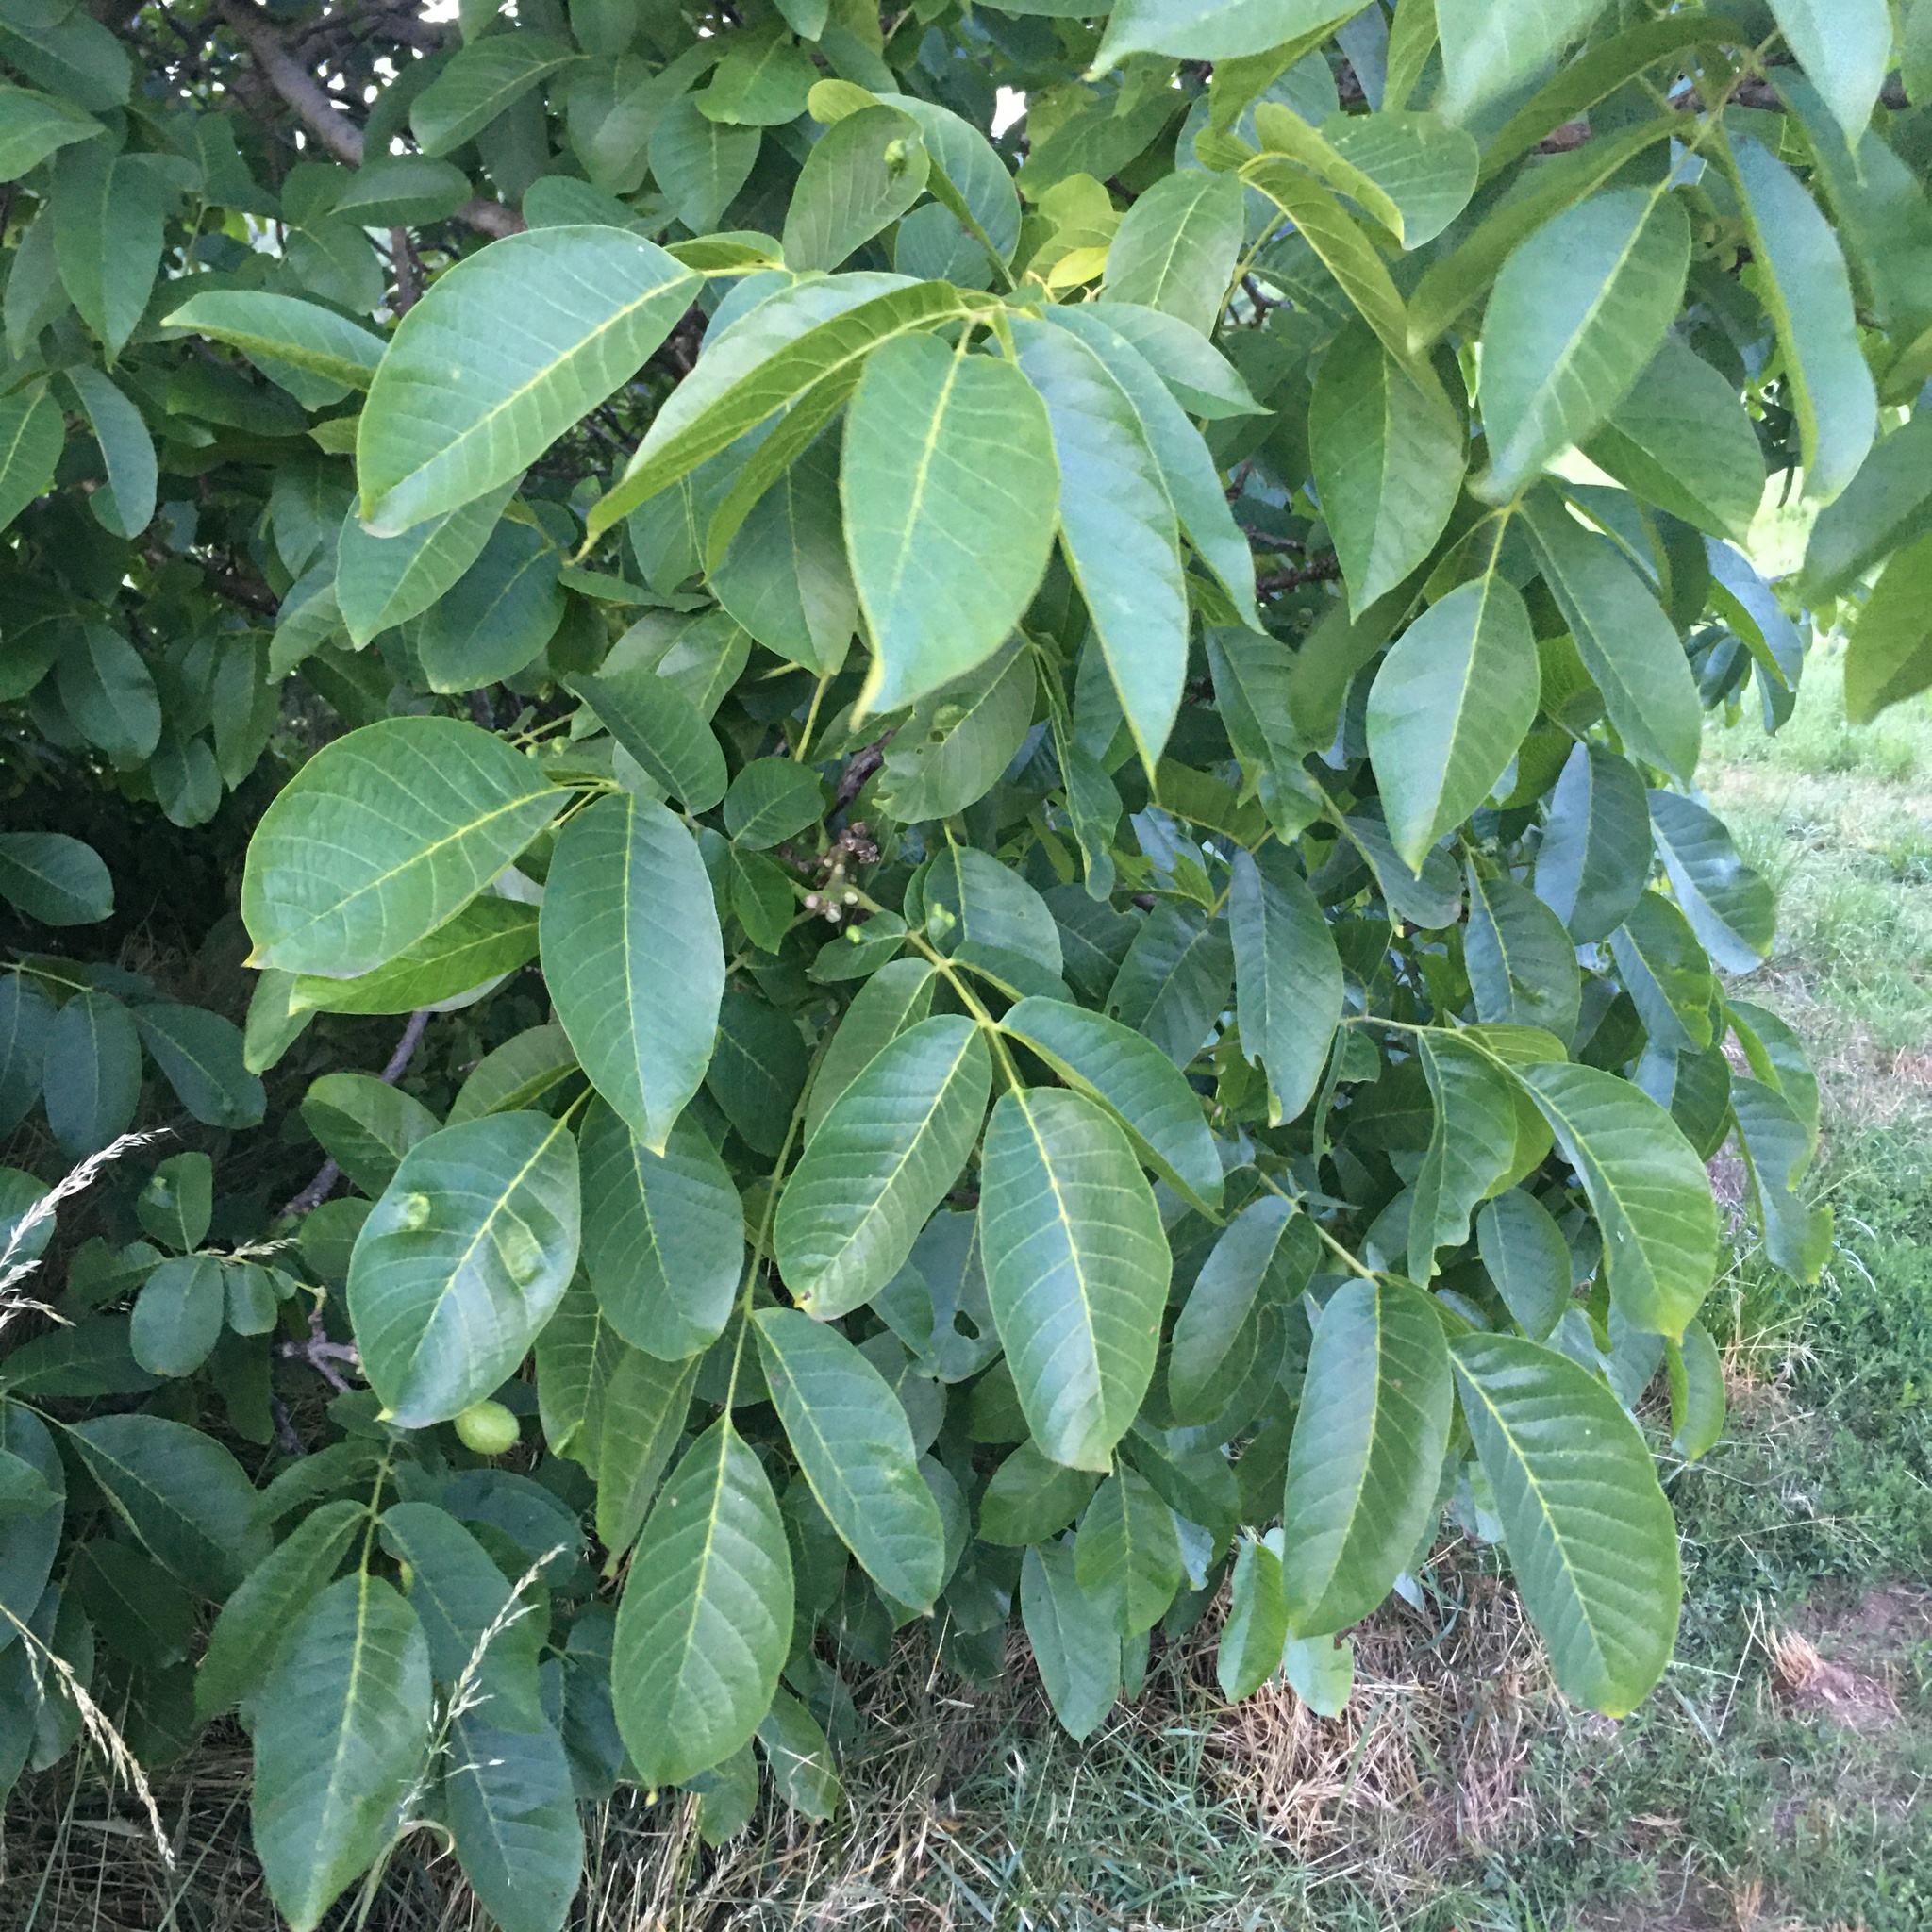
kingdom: Plantae
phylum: Tracheophyta
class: Magnoliopsida
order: Fagales
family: Juglandaceae
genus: Juglans
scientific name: Juglans regia
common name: Walnut
